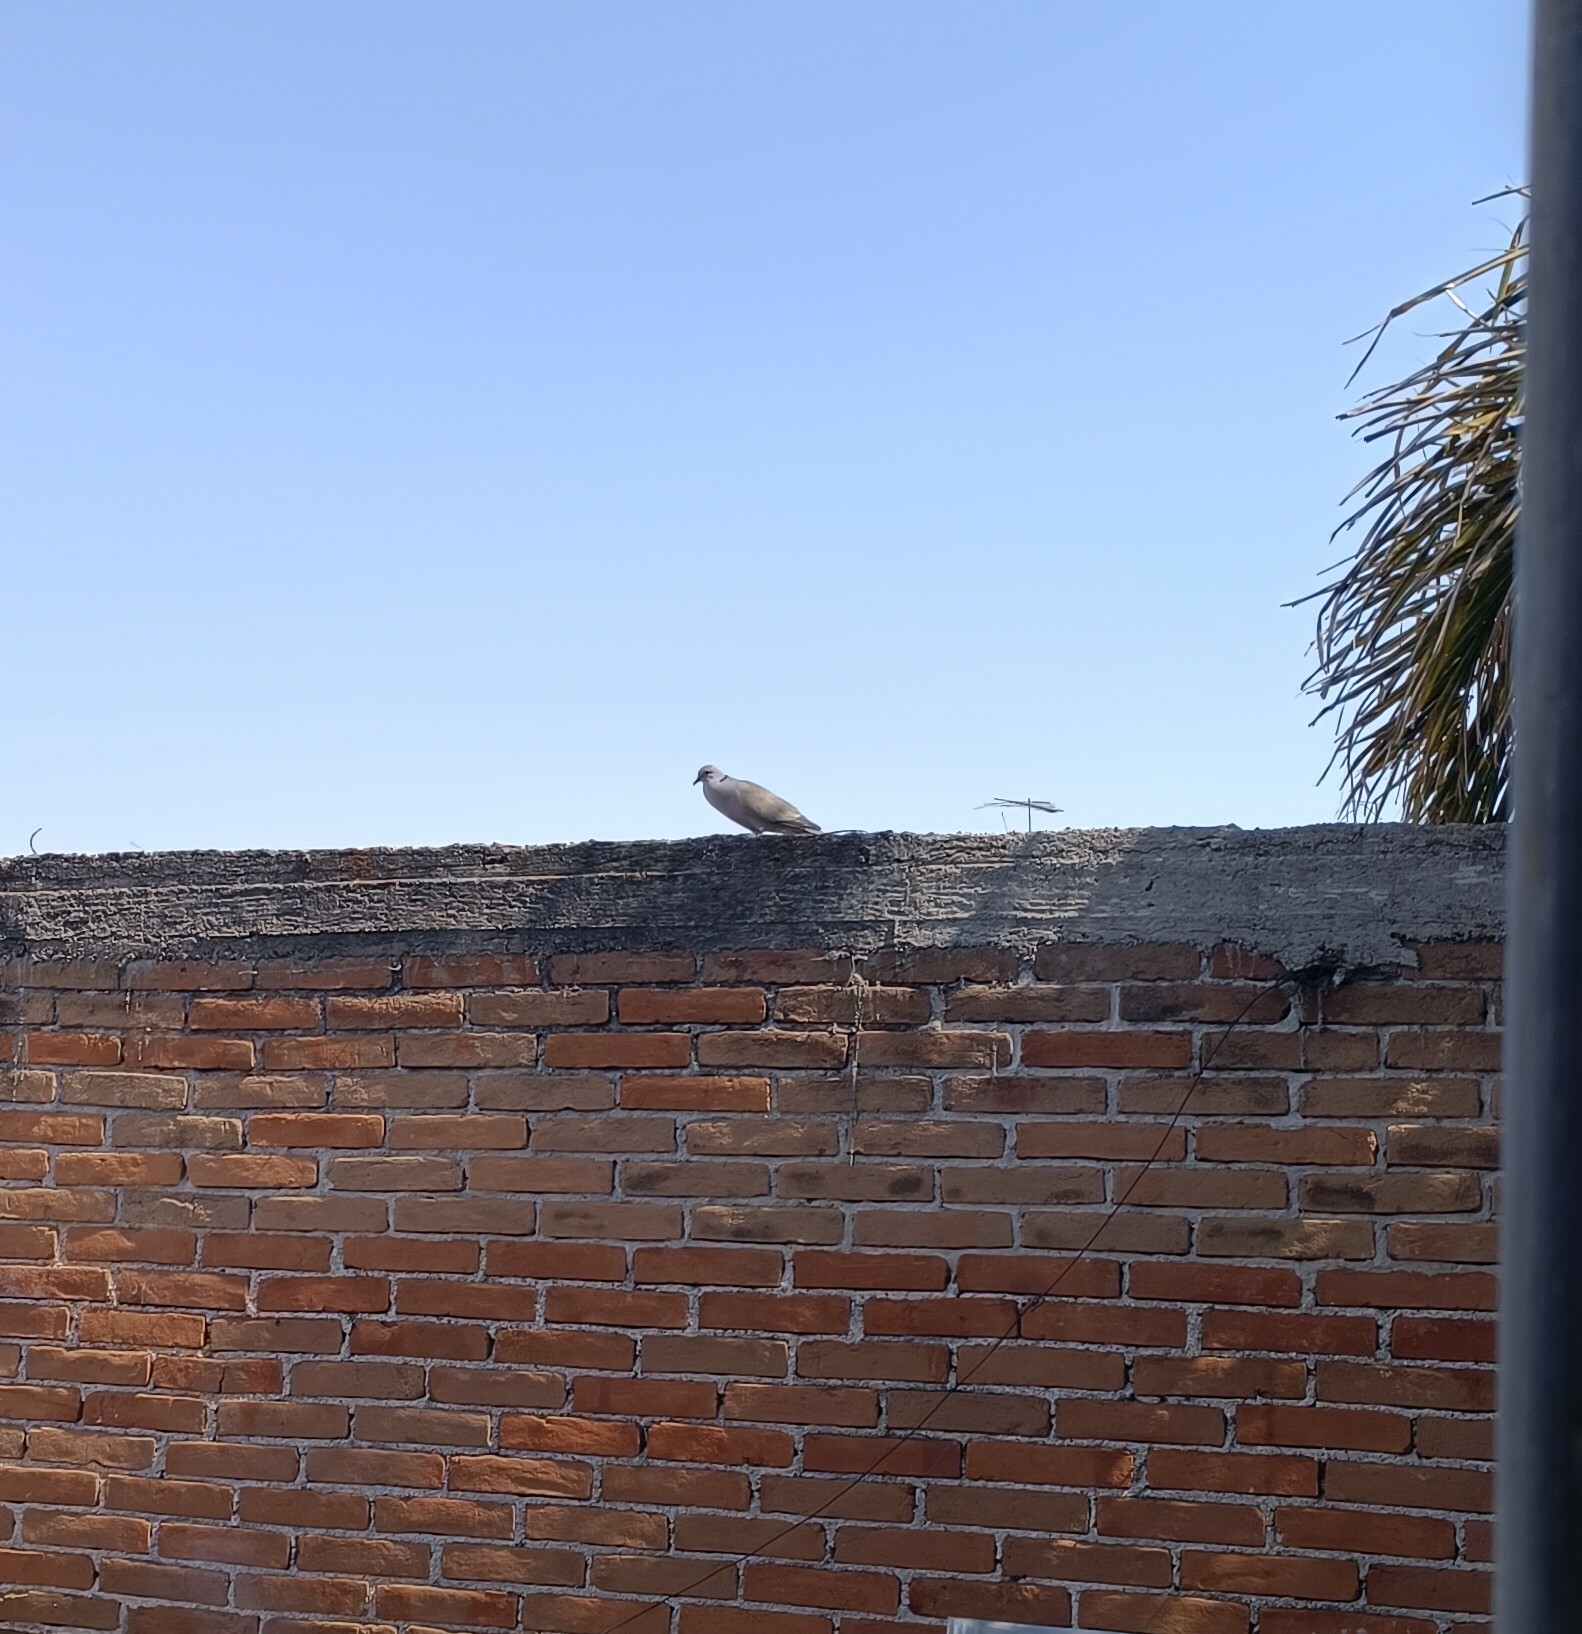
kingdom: Animalia
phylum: Chordata
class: Aves
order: Columbiformes
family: Columbidae
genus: Streptopelia
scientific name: Streptopelia decaocto
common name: Eurasian collared dove
